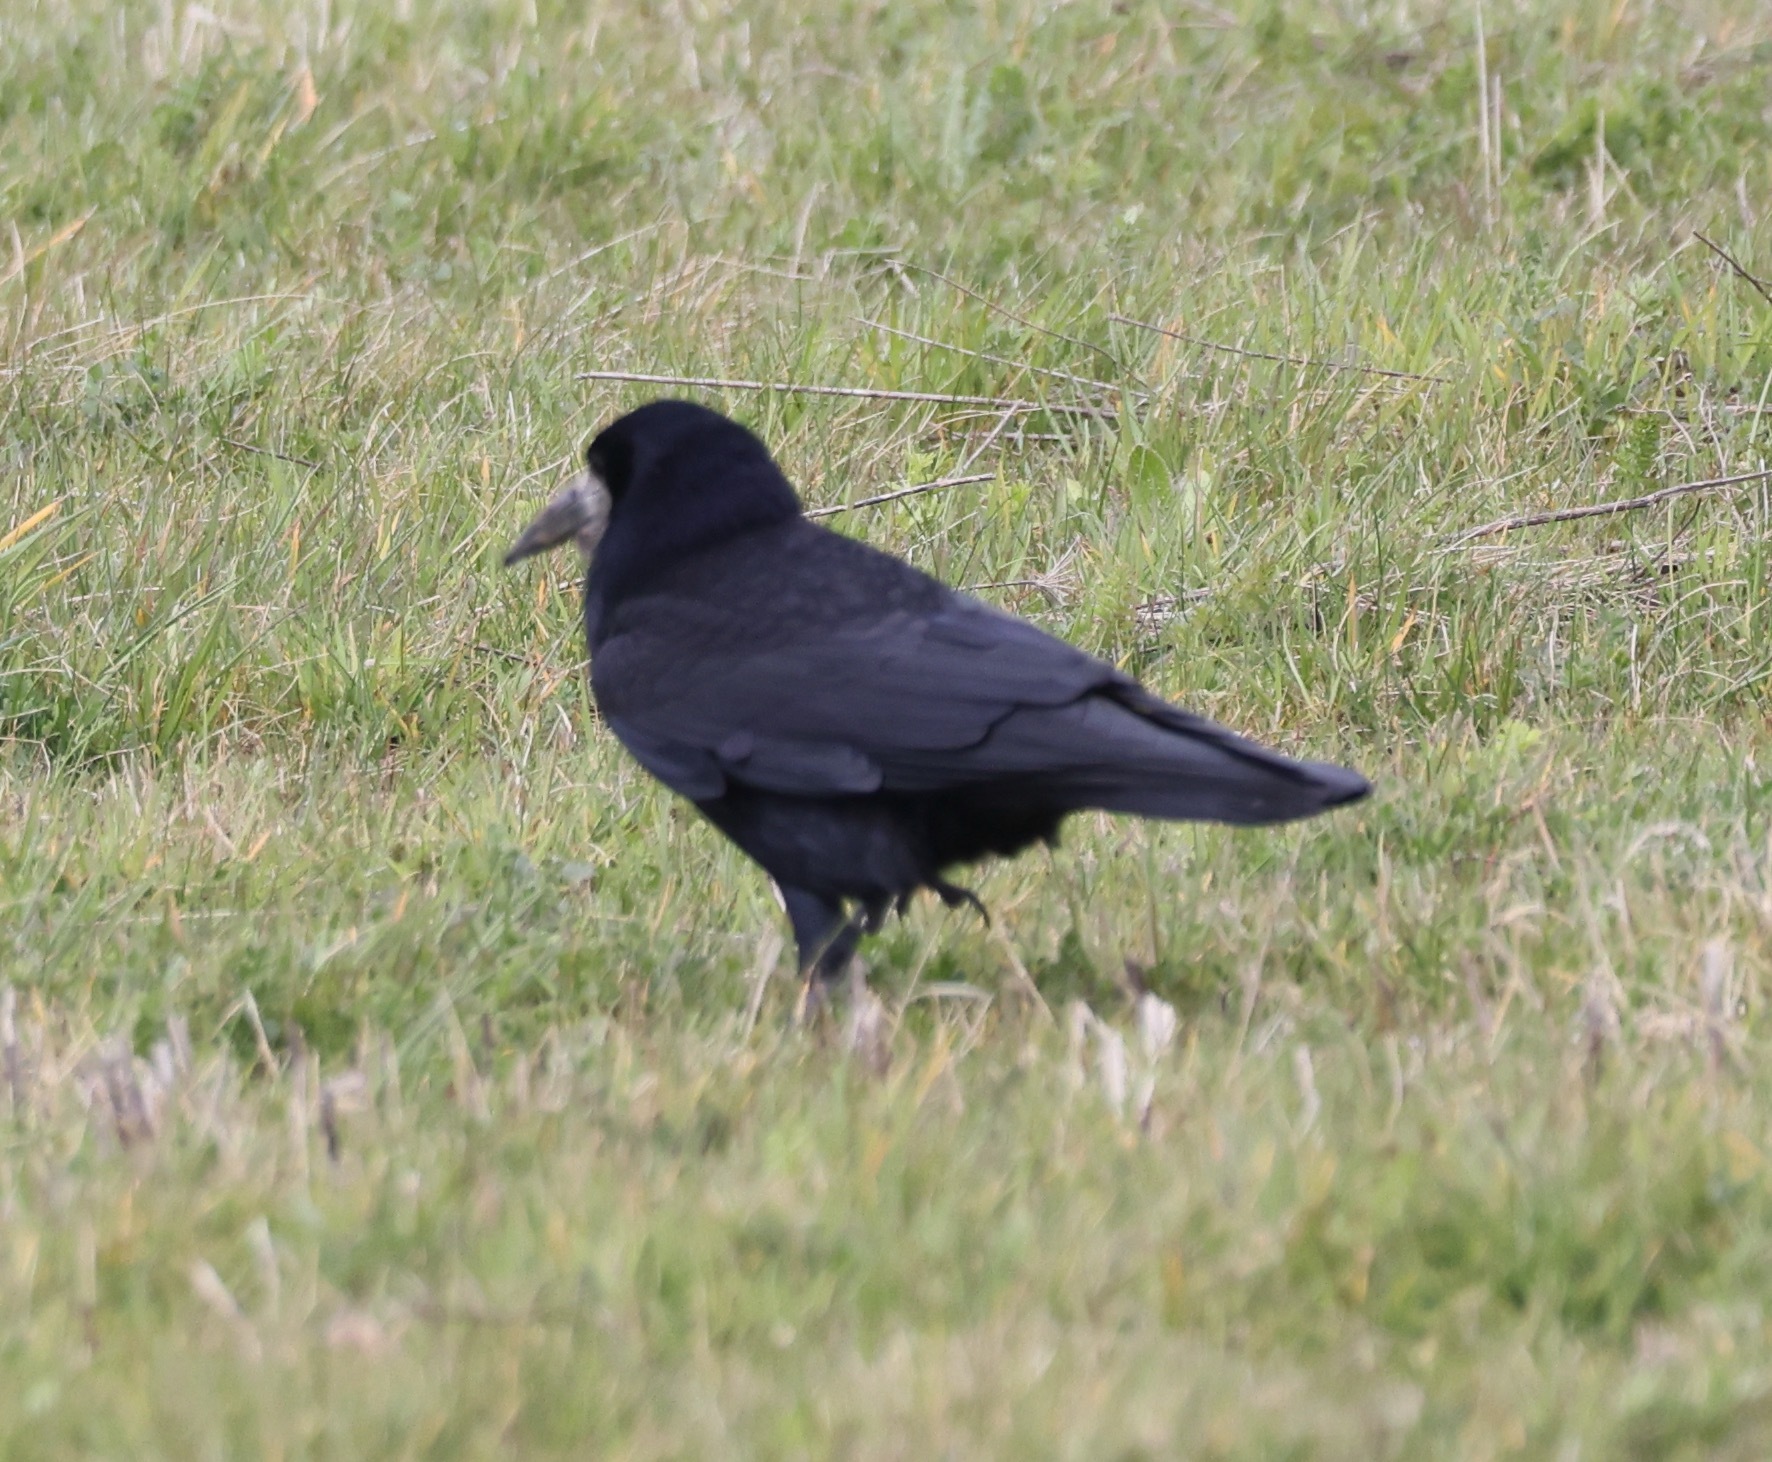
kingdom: Animalia
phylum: Chordata
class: Aves
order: Passeriformes
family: Corvidae
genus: Corvus
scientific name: Corvus frugilegus
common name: Rook
